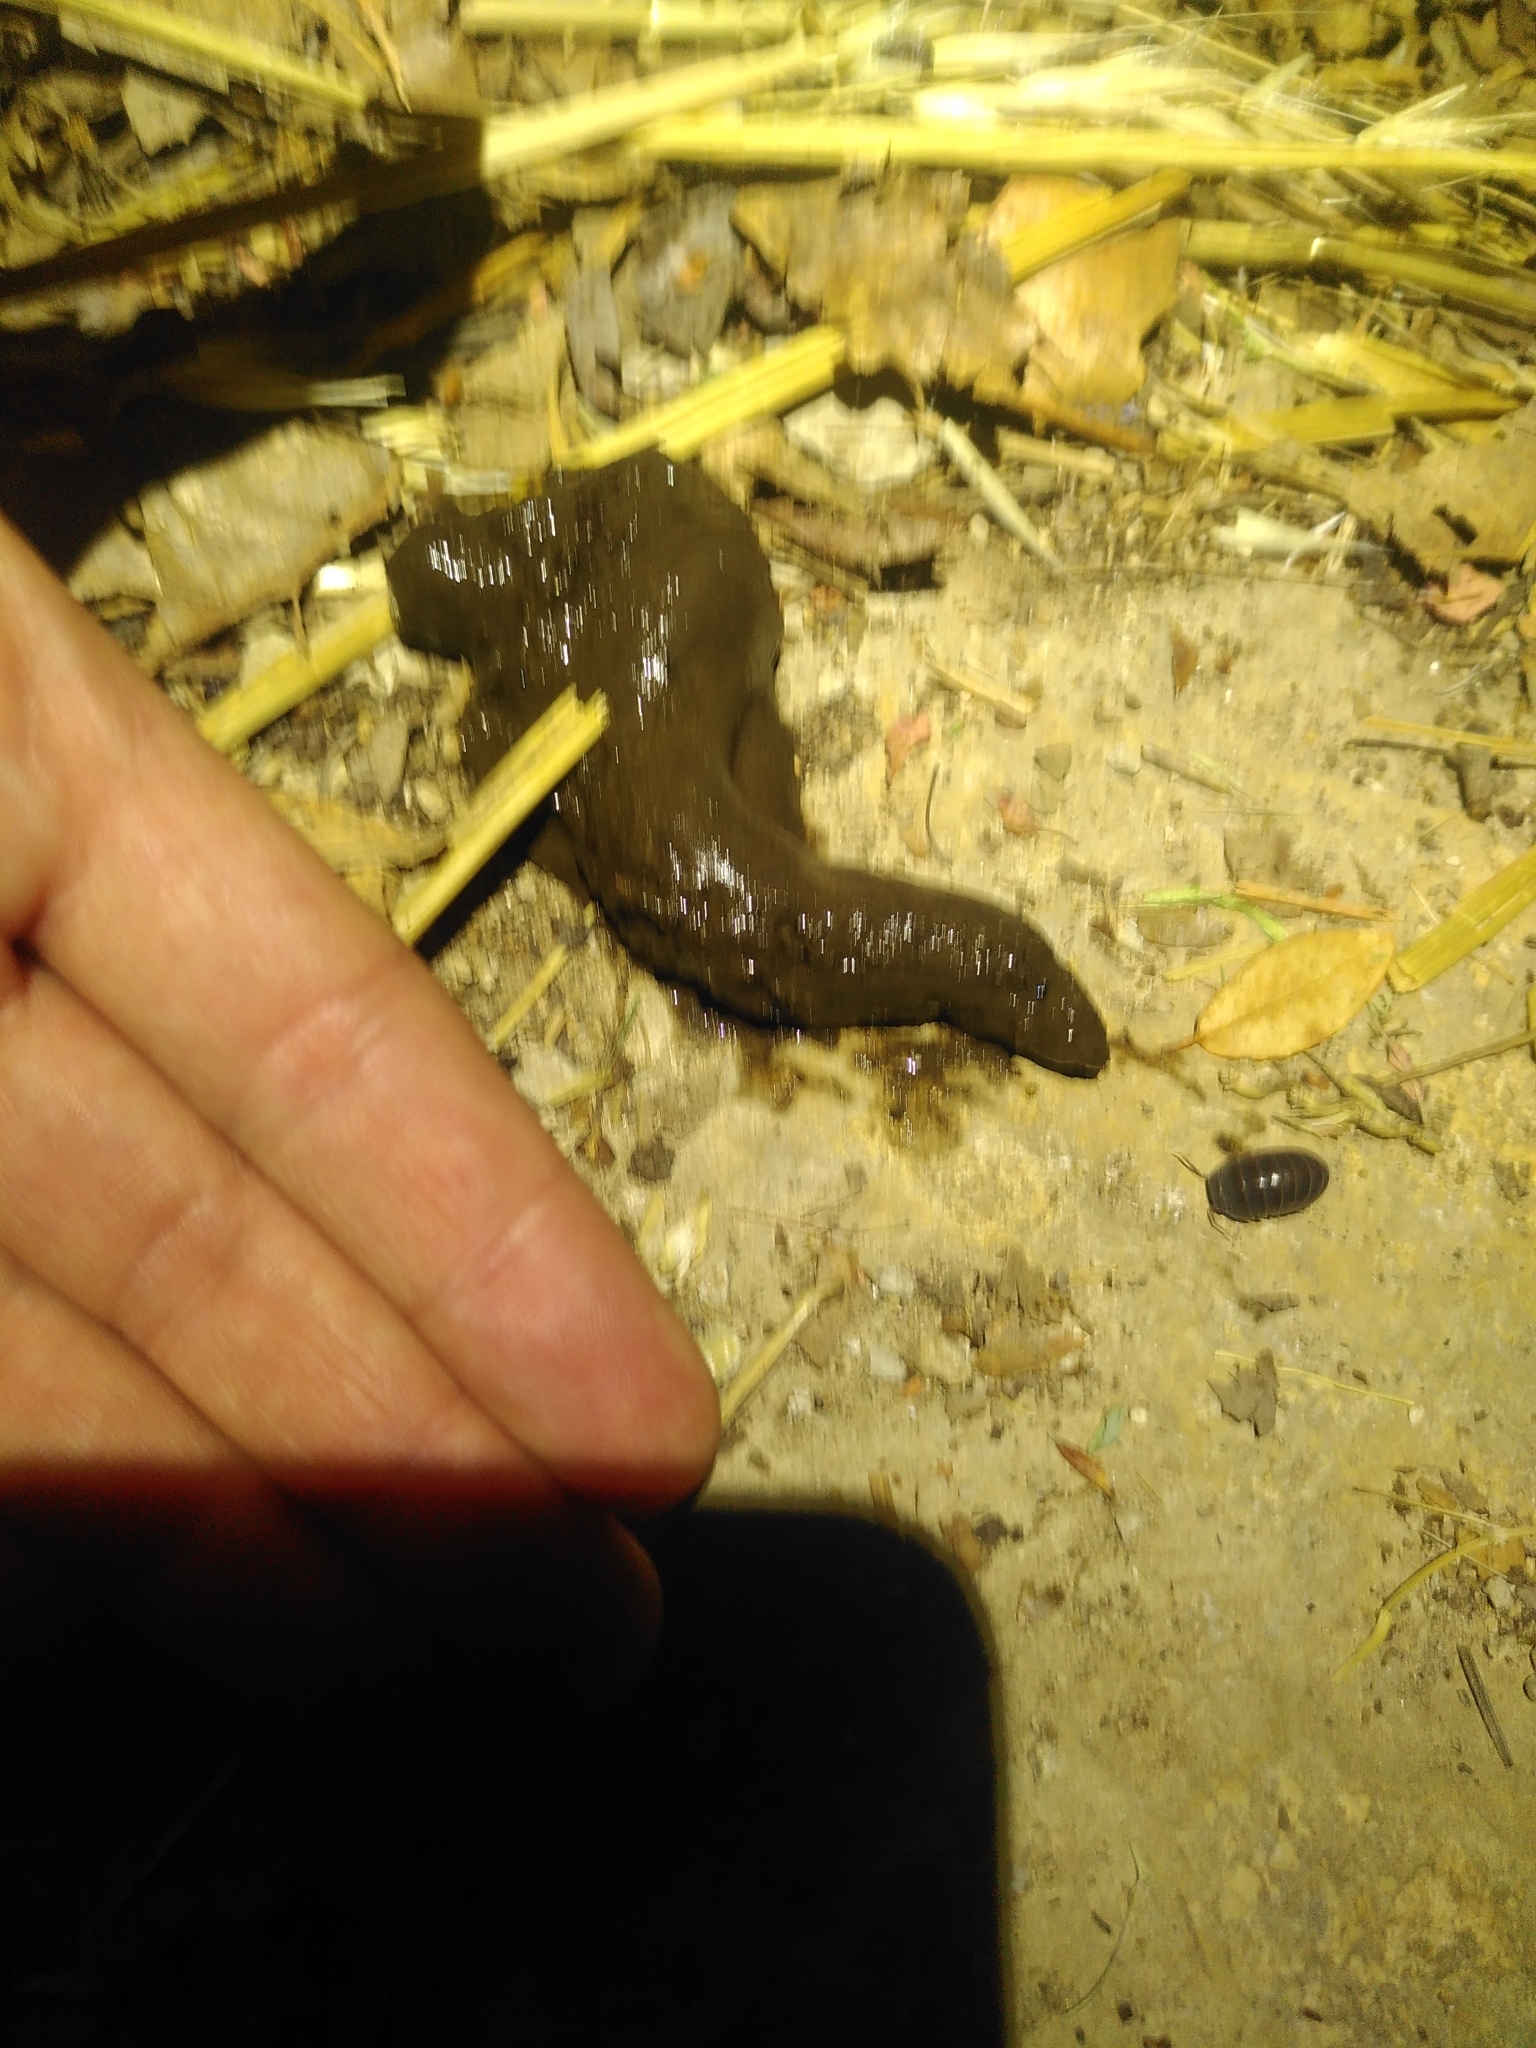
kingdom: Animalia
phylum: Chordata
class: Amphibia
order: Anura
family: Bufonidae
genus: Bufo
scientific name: Bufo spinosus
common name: Western common toad
